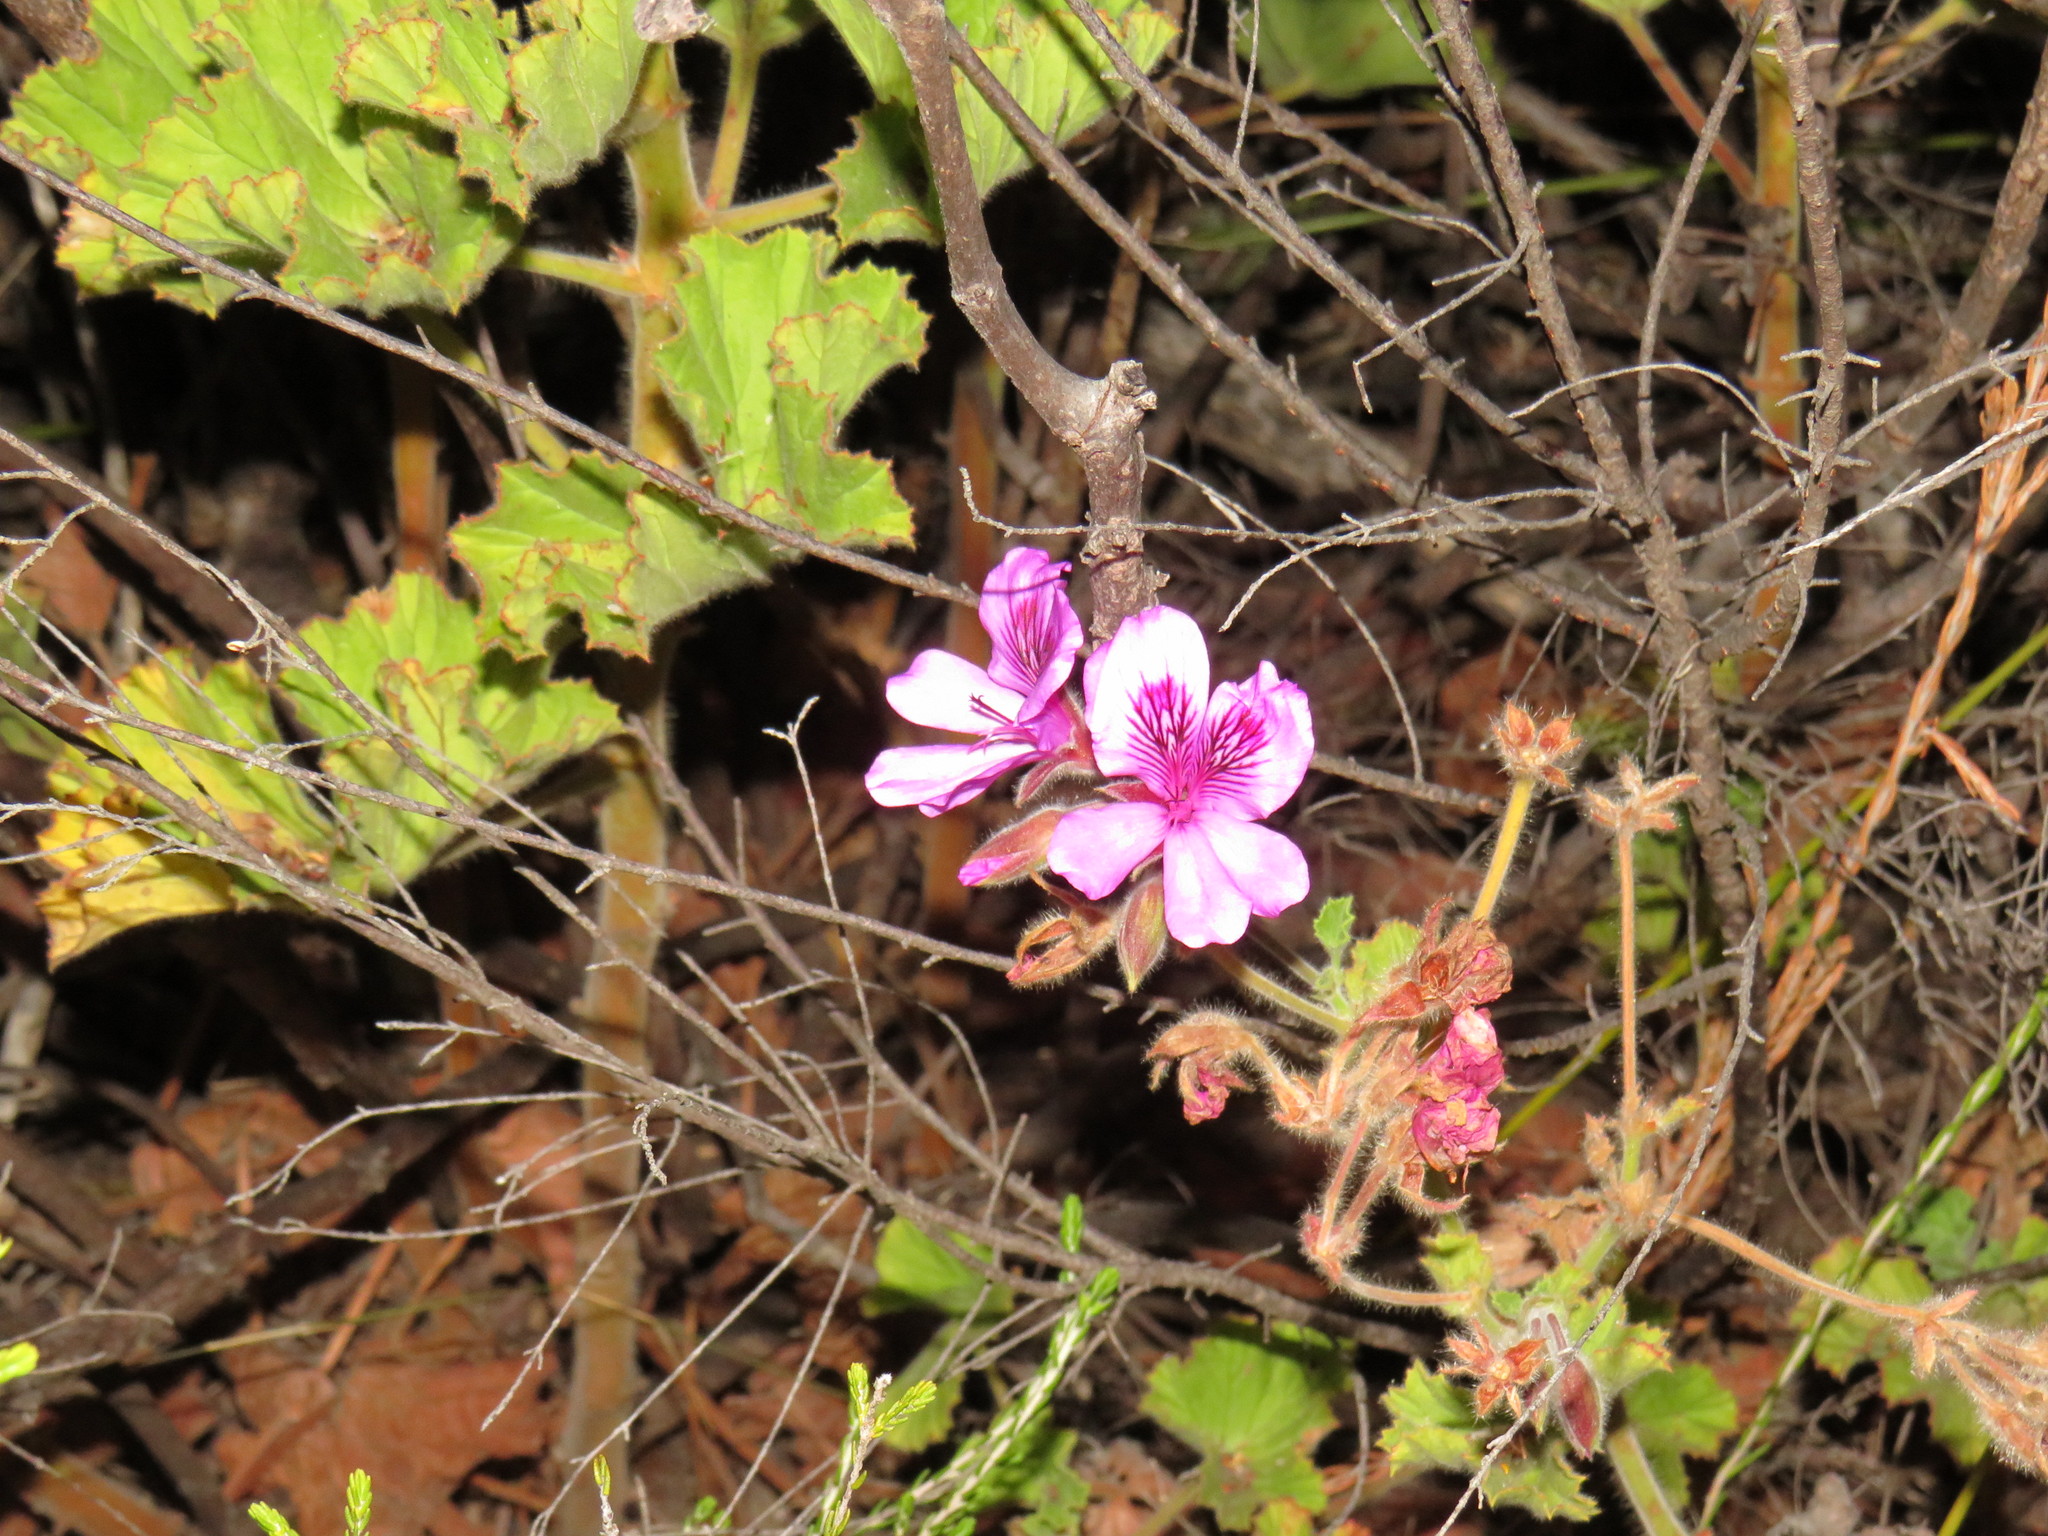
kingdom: Plantae
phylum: Tracheophyta
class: Magnoliopsida
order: Geraniales
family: Geraniaceae
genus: Pelargonium
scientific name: Pelargonium cucullatum
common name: Tree pelargonium
